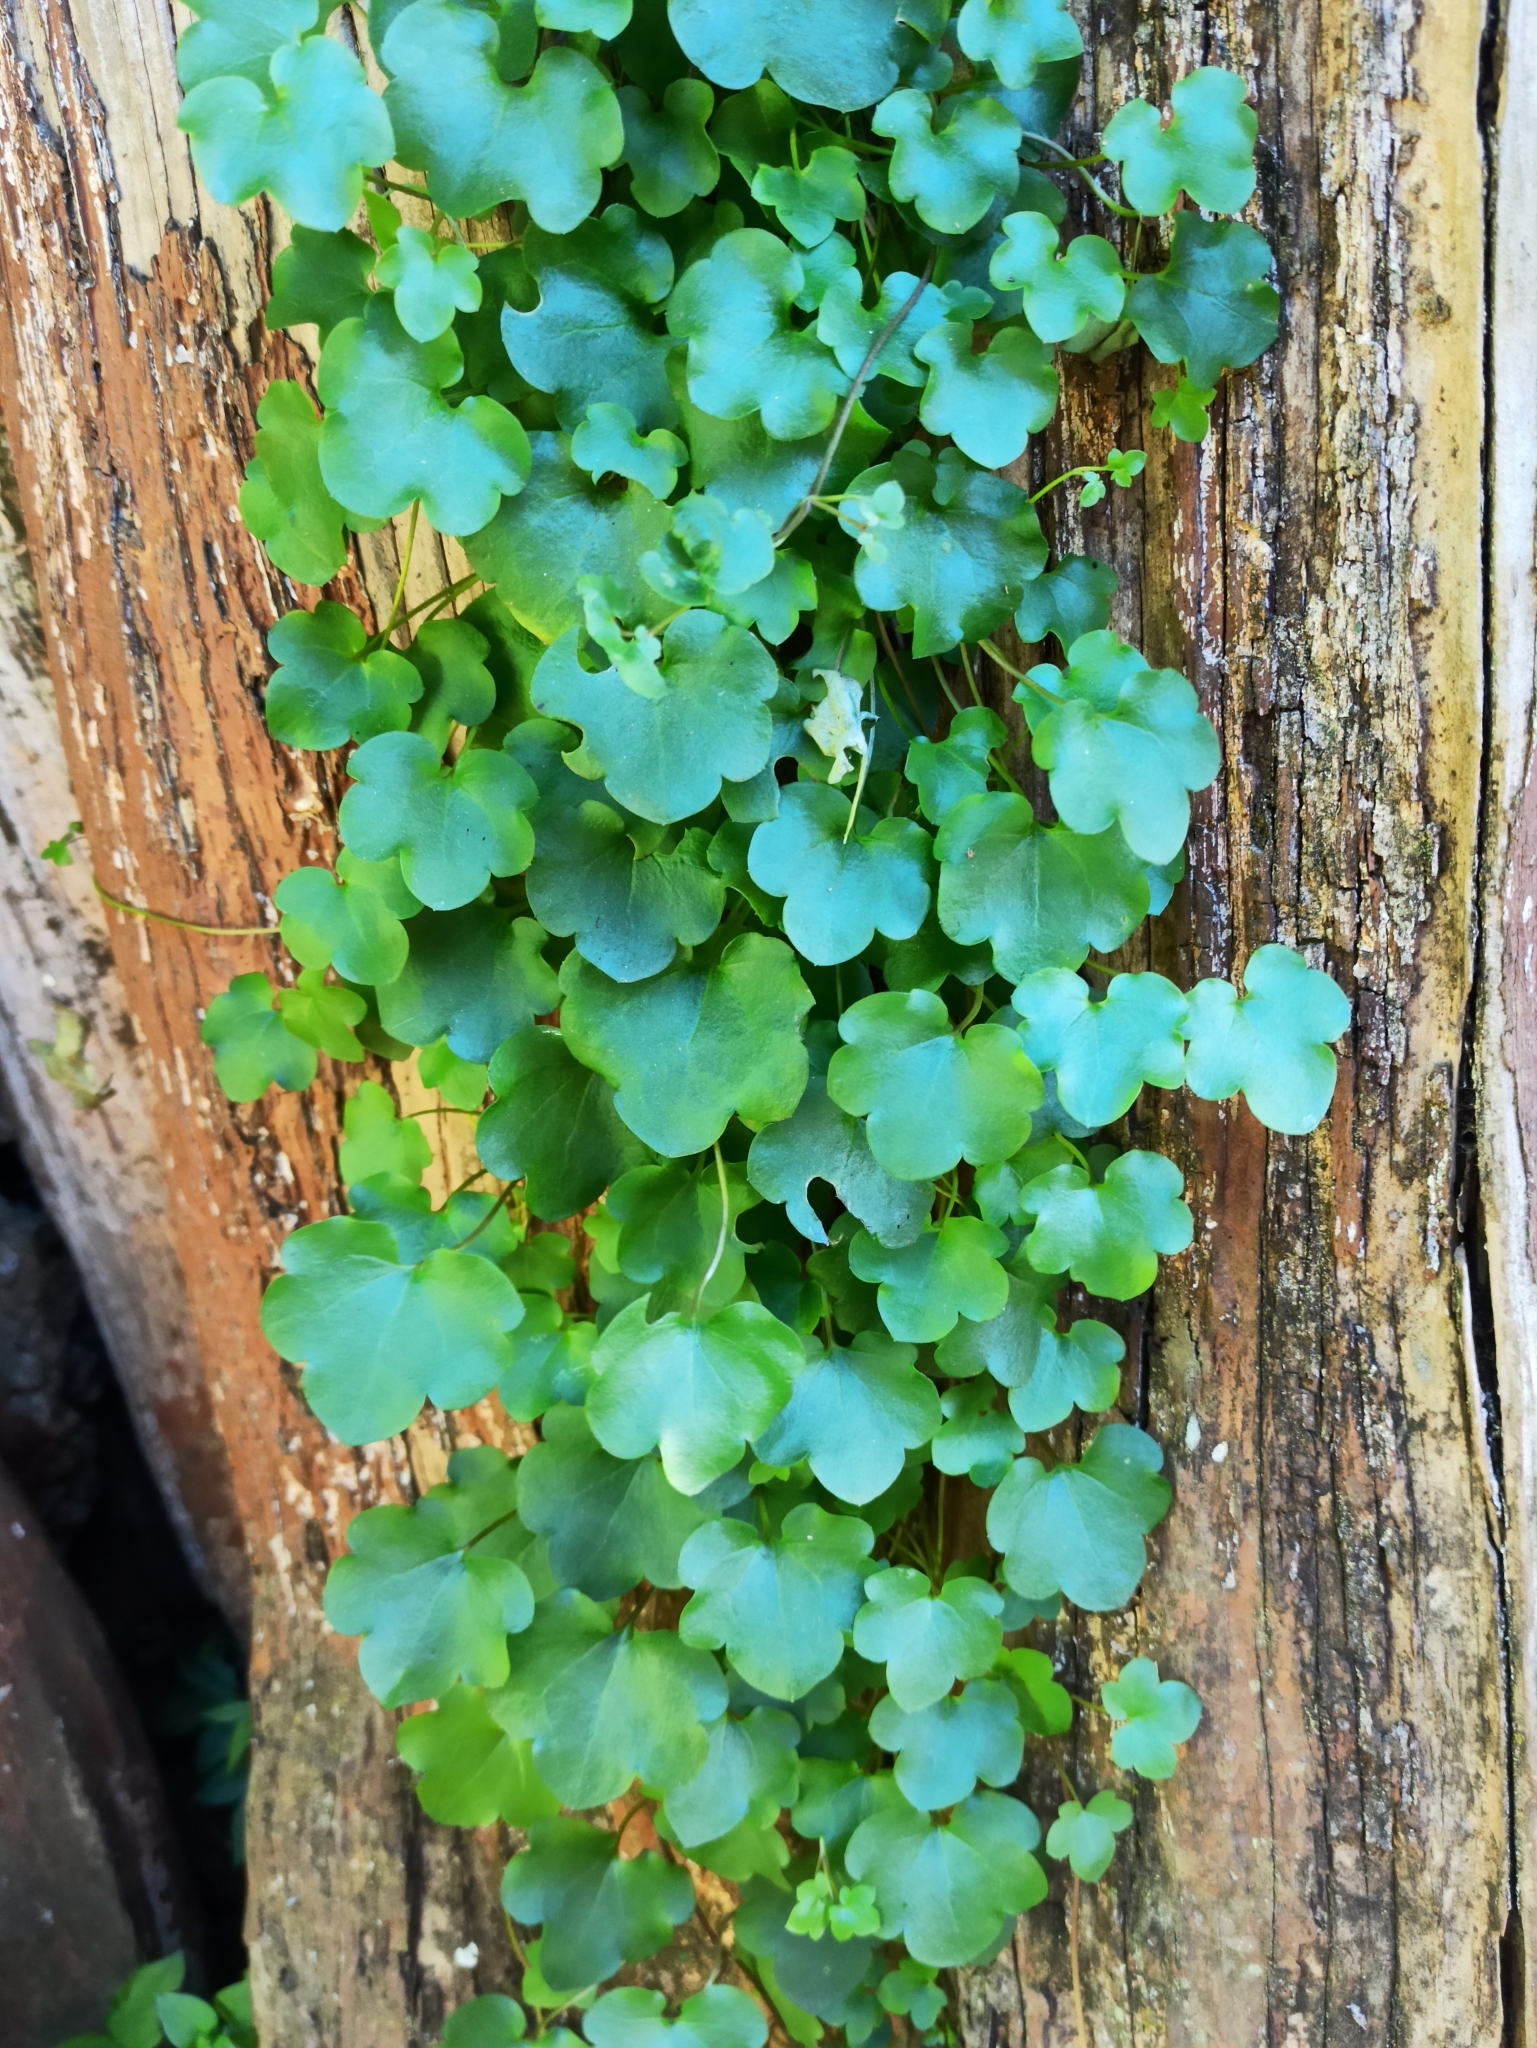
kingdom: Plantae
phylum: Tracheophyta
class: Magnoliopsida
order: Lamiales
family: Plantaginaceae
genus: Cymbalaria
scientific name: Cymbalaria muralis
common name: Ivy-leaved toadflax
